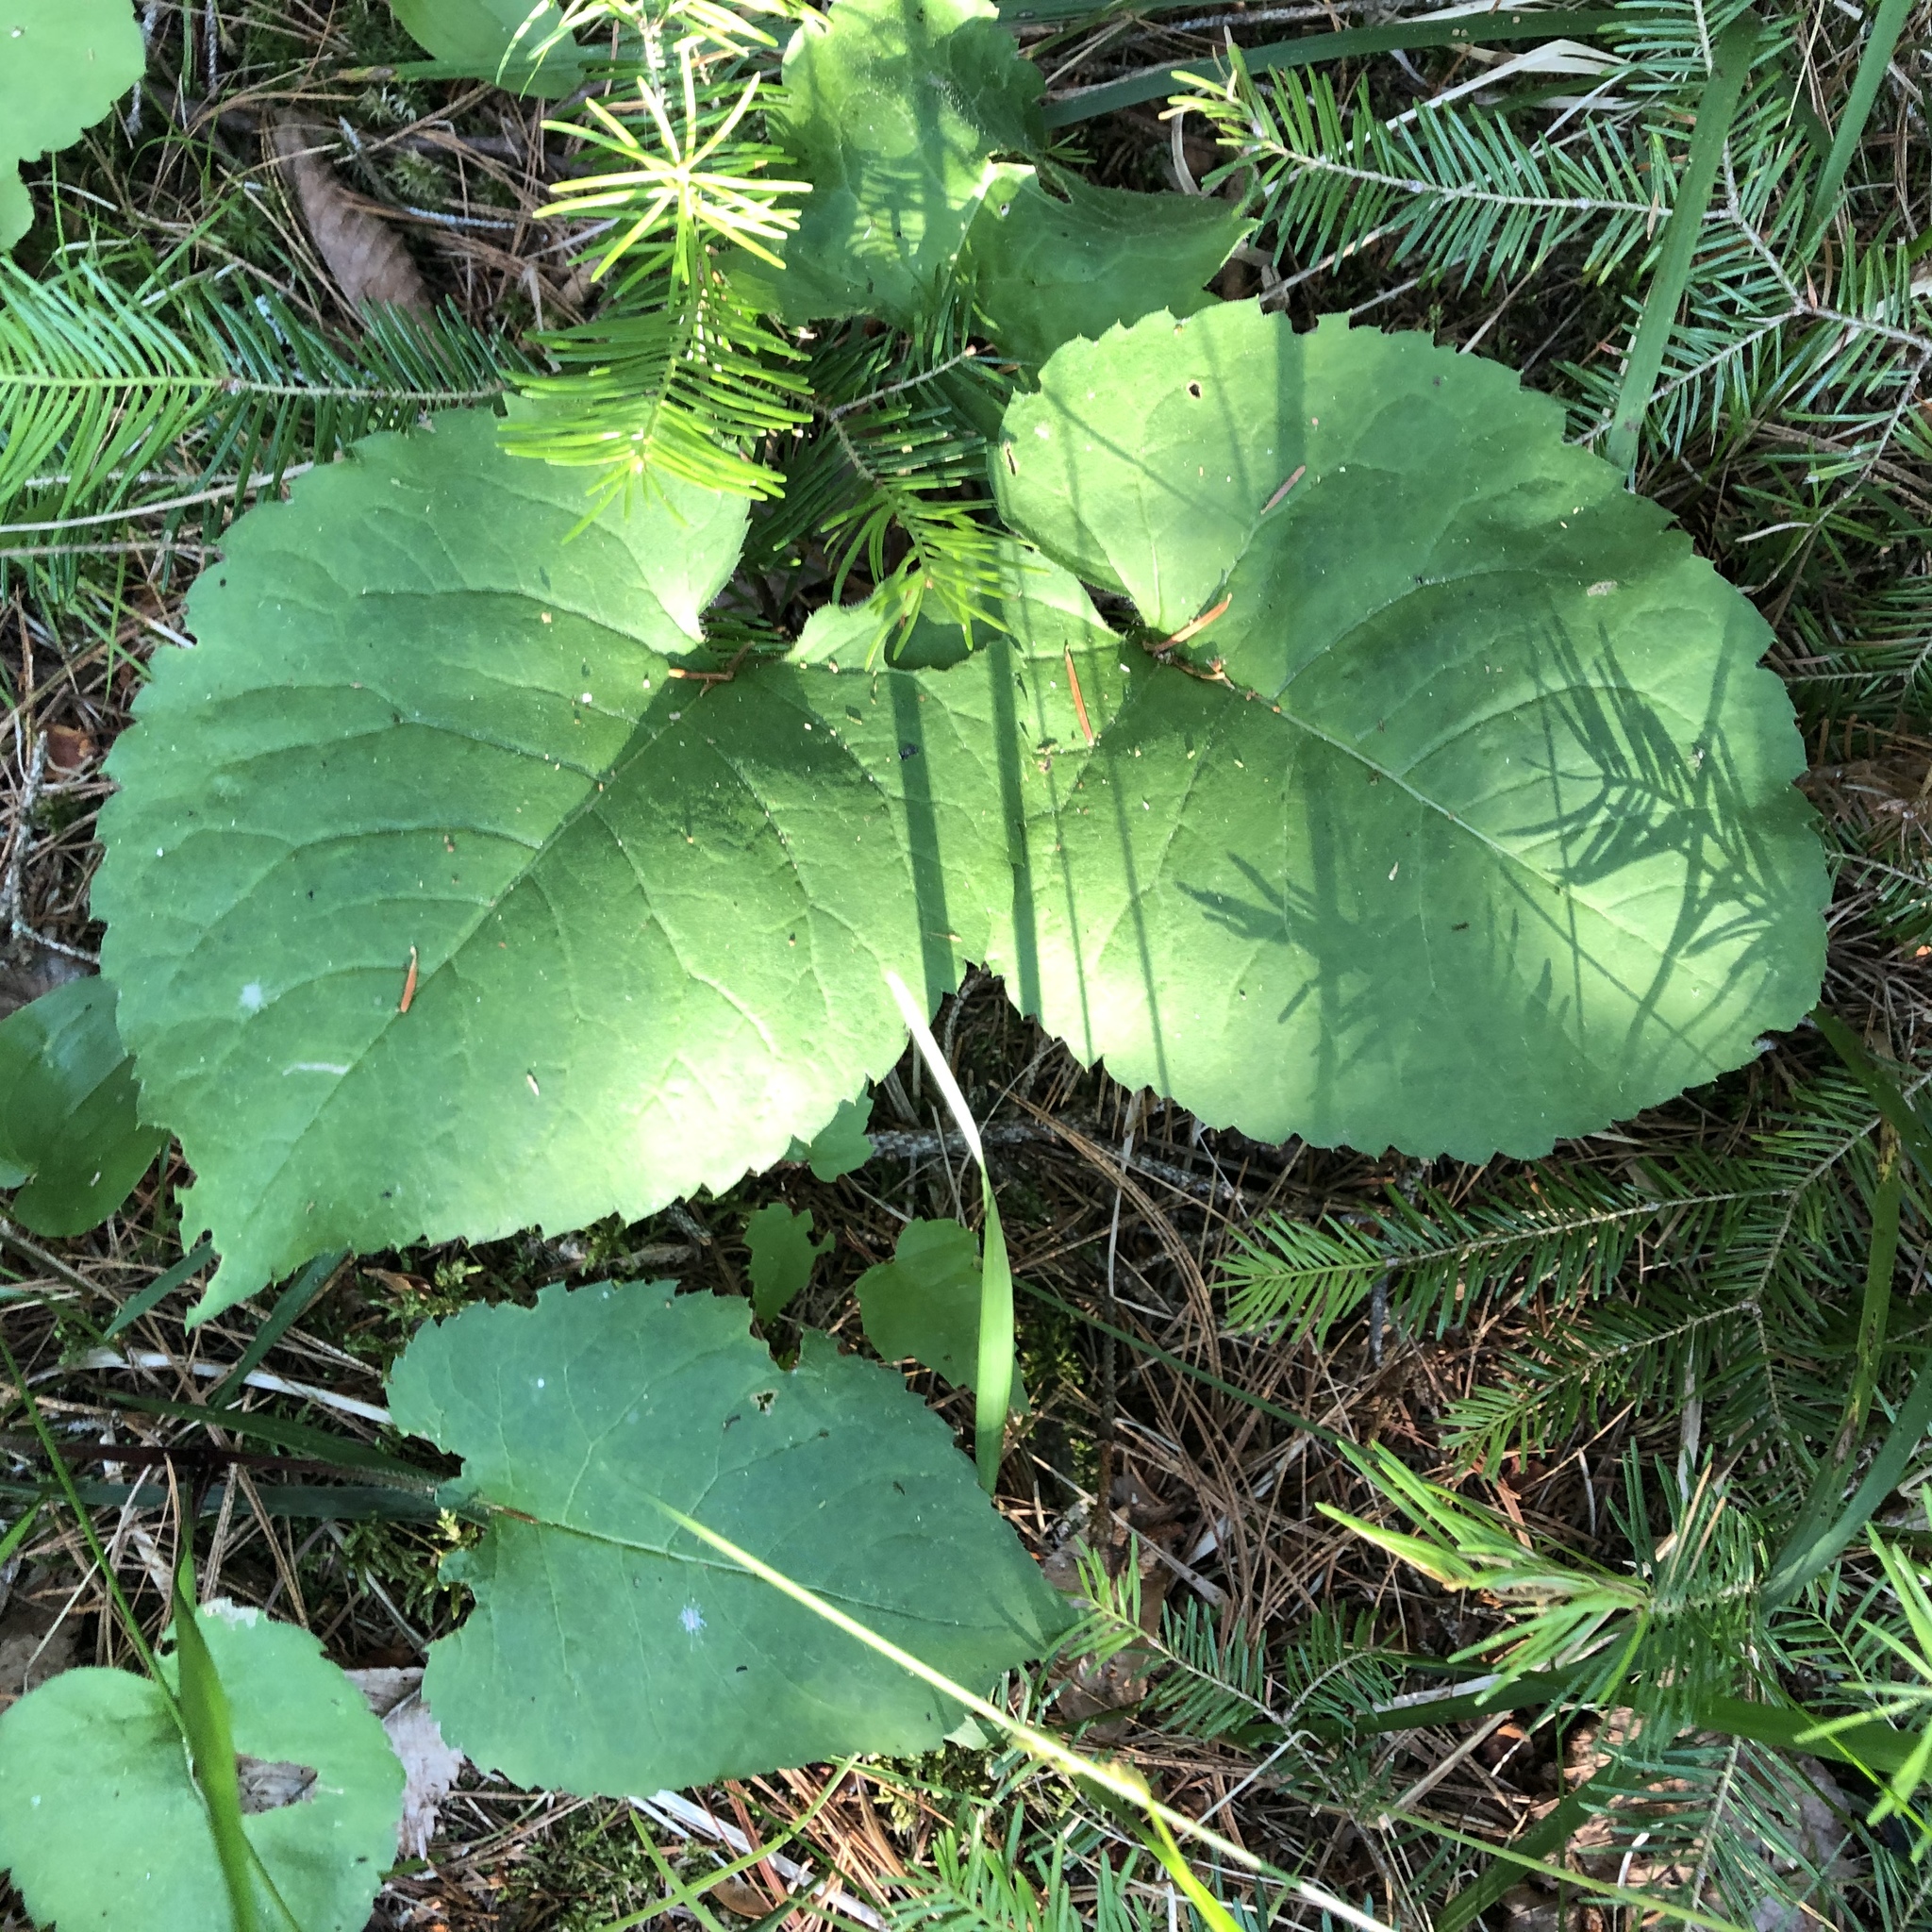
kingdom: Plantae
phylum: Tracheophyta
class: Magnoliopsida
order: Asterales
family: Asteraceae
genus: Eurybia
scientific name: Eurybia macrophylla
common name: Big-leaved aster
